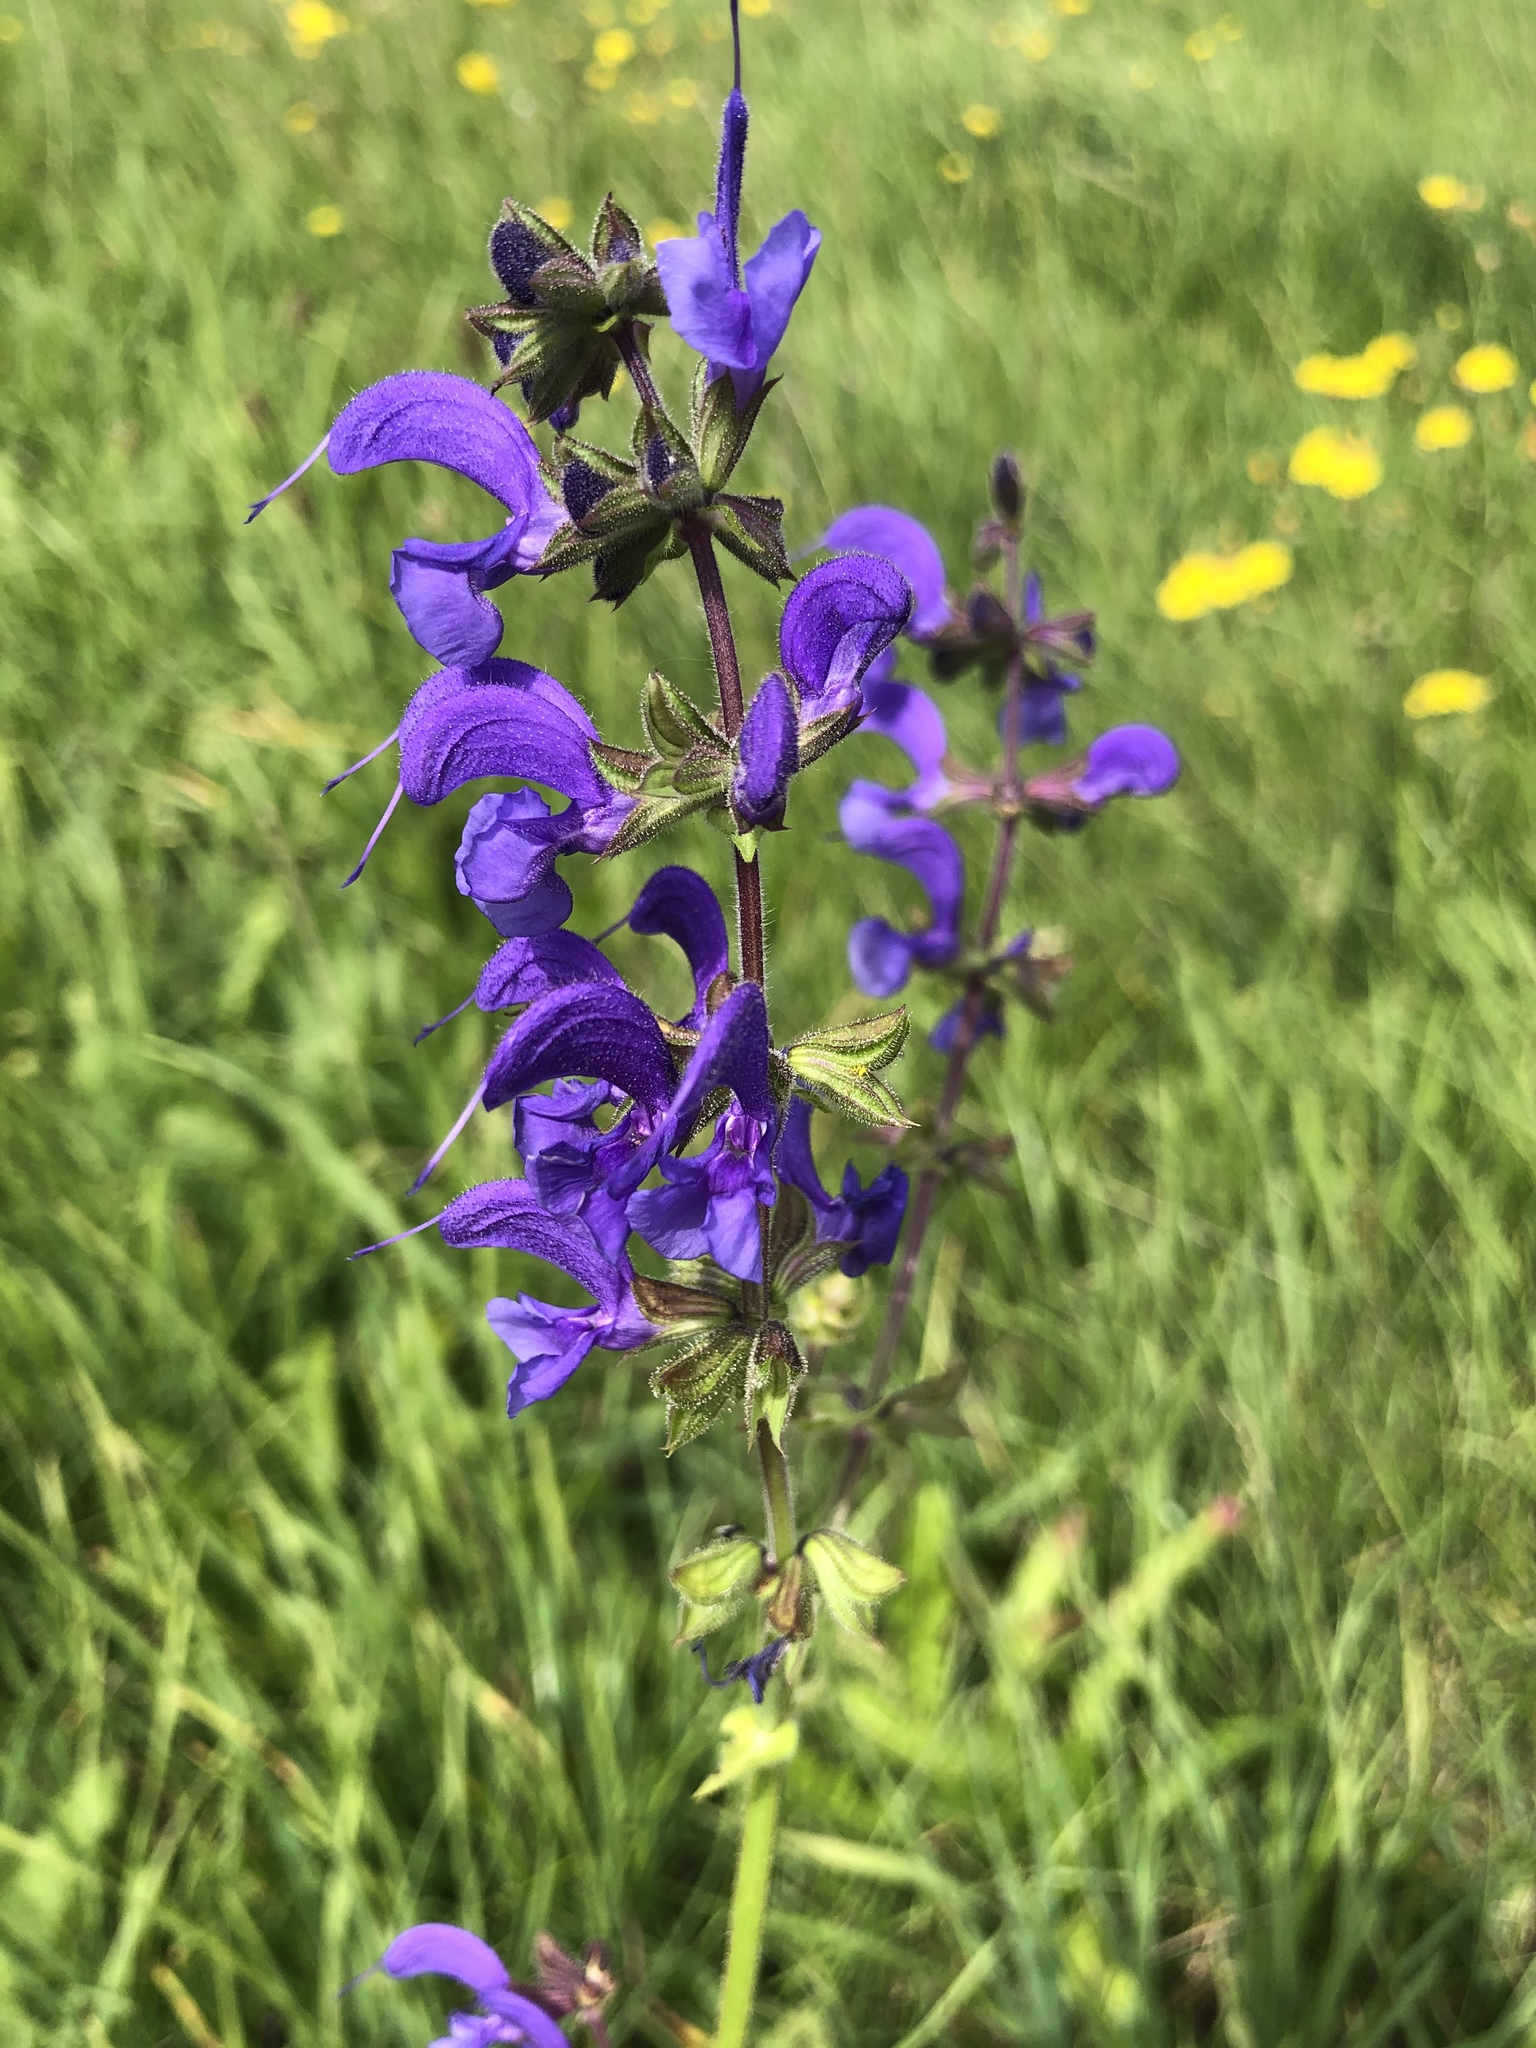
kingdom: Plantae
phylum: Tracheophyta
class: Magnoliopsida
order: Lamiales
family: Lamiaceae
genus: Salvia
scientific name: Salvia pratensis
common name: Meadow sage
